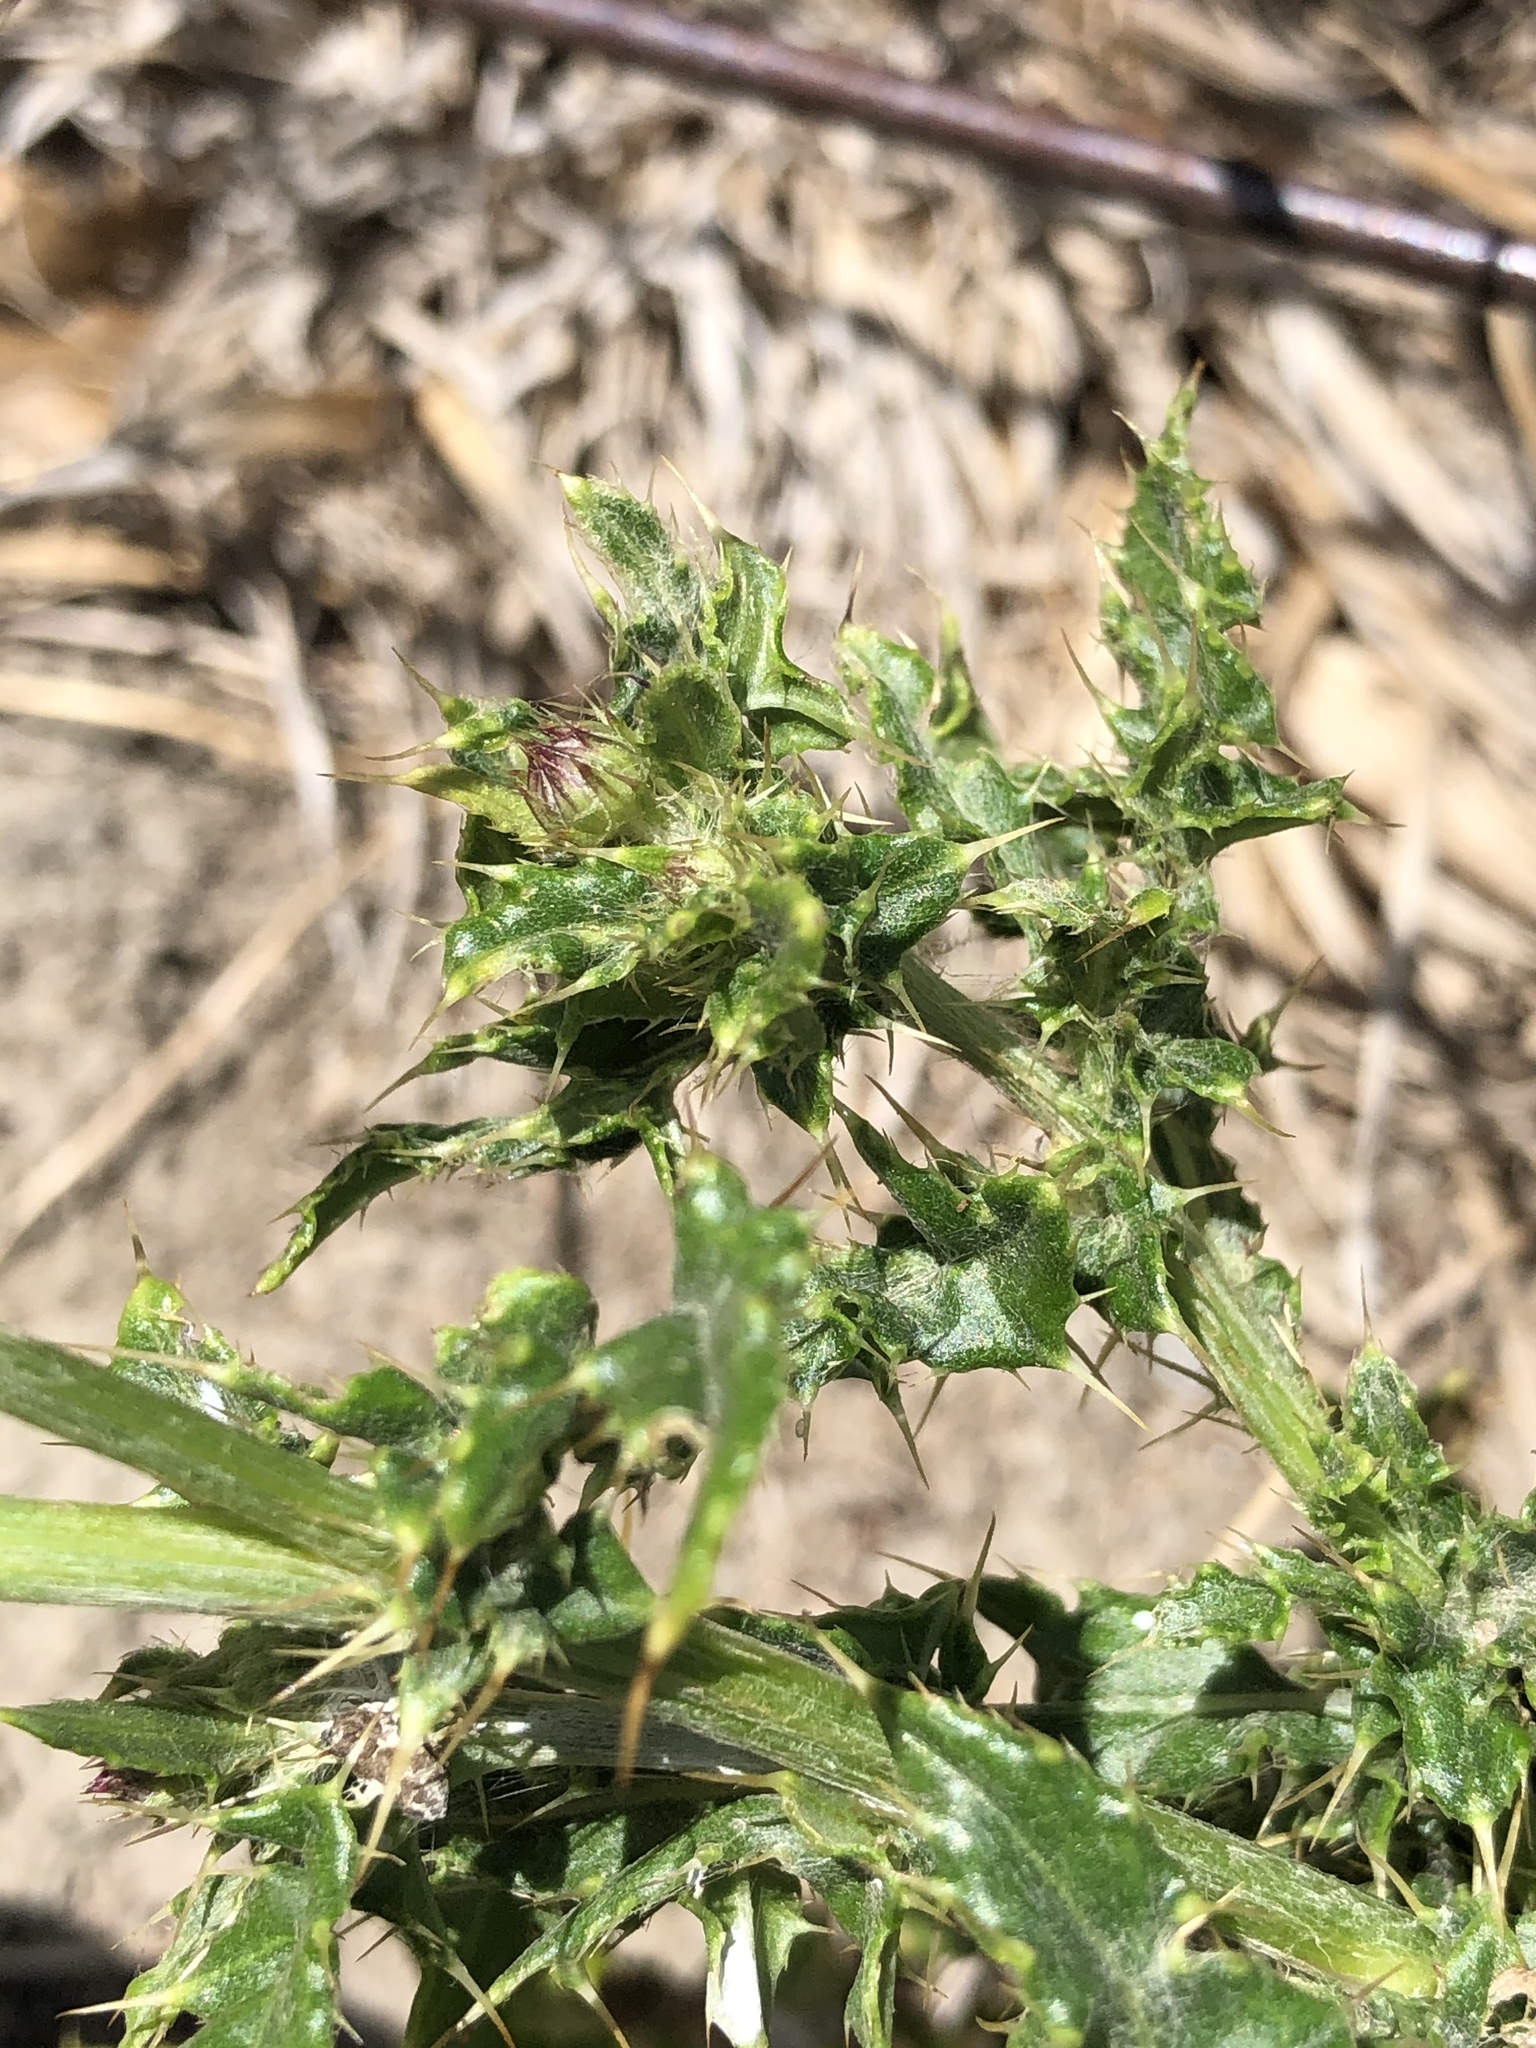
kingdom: Plantae
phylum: Tracheophyta
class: Magnoliopsida
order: Asterales
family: Asteraceae
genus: Cirsium
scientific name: Cirsium arvense
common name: Creeping thistle
